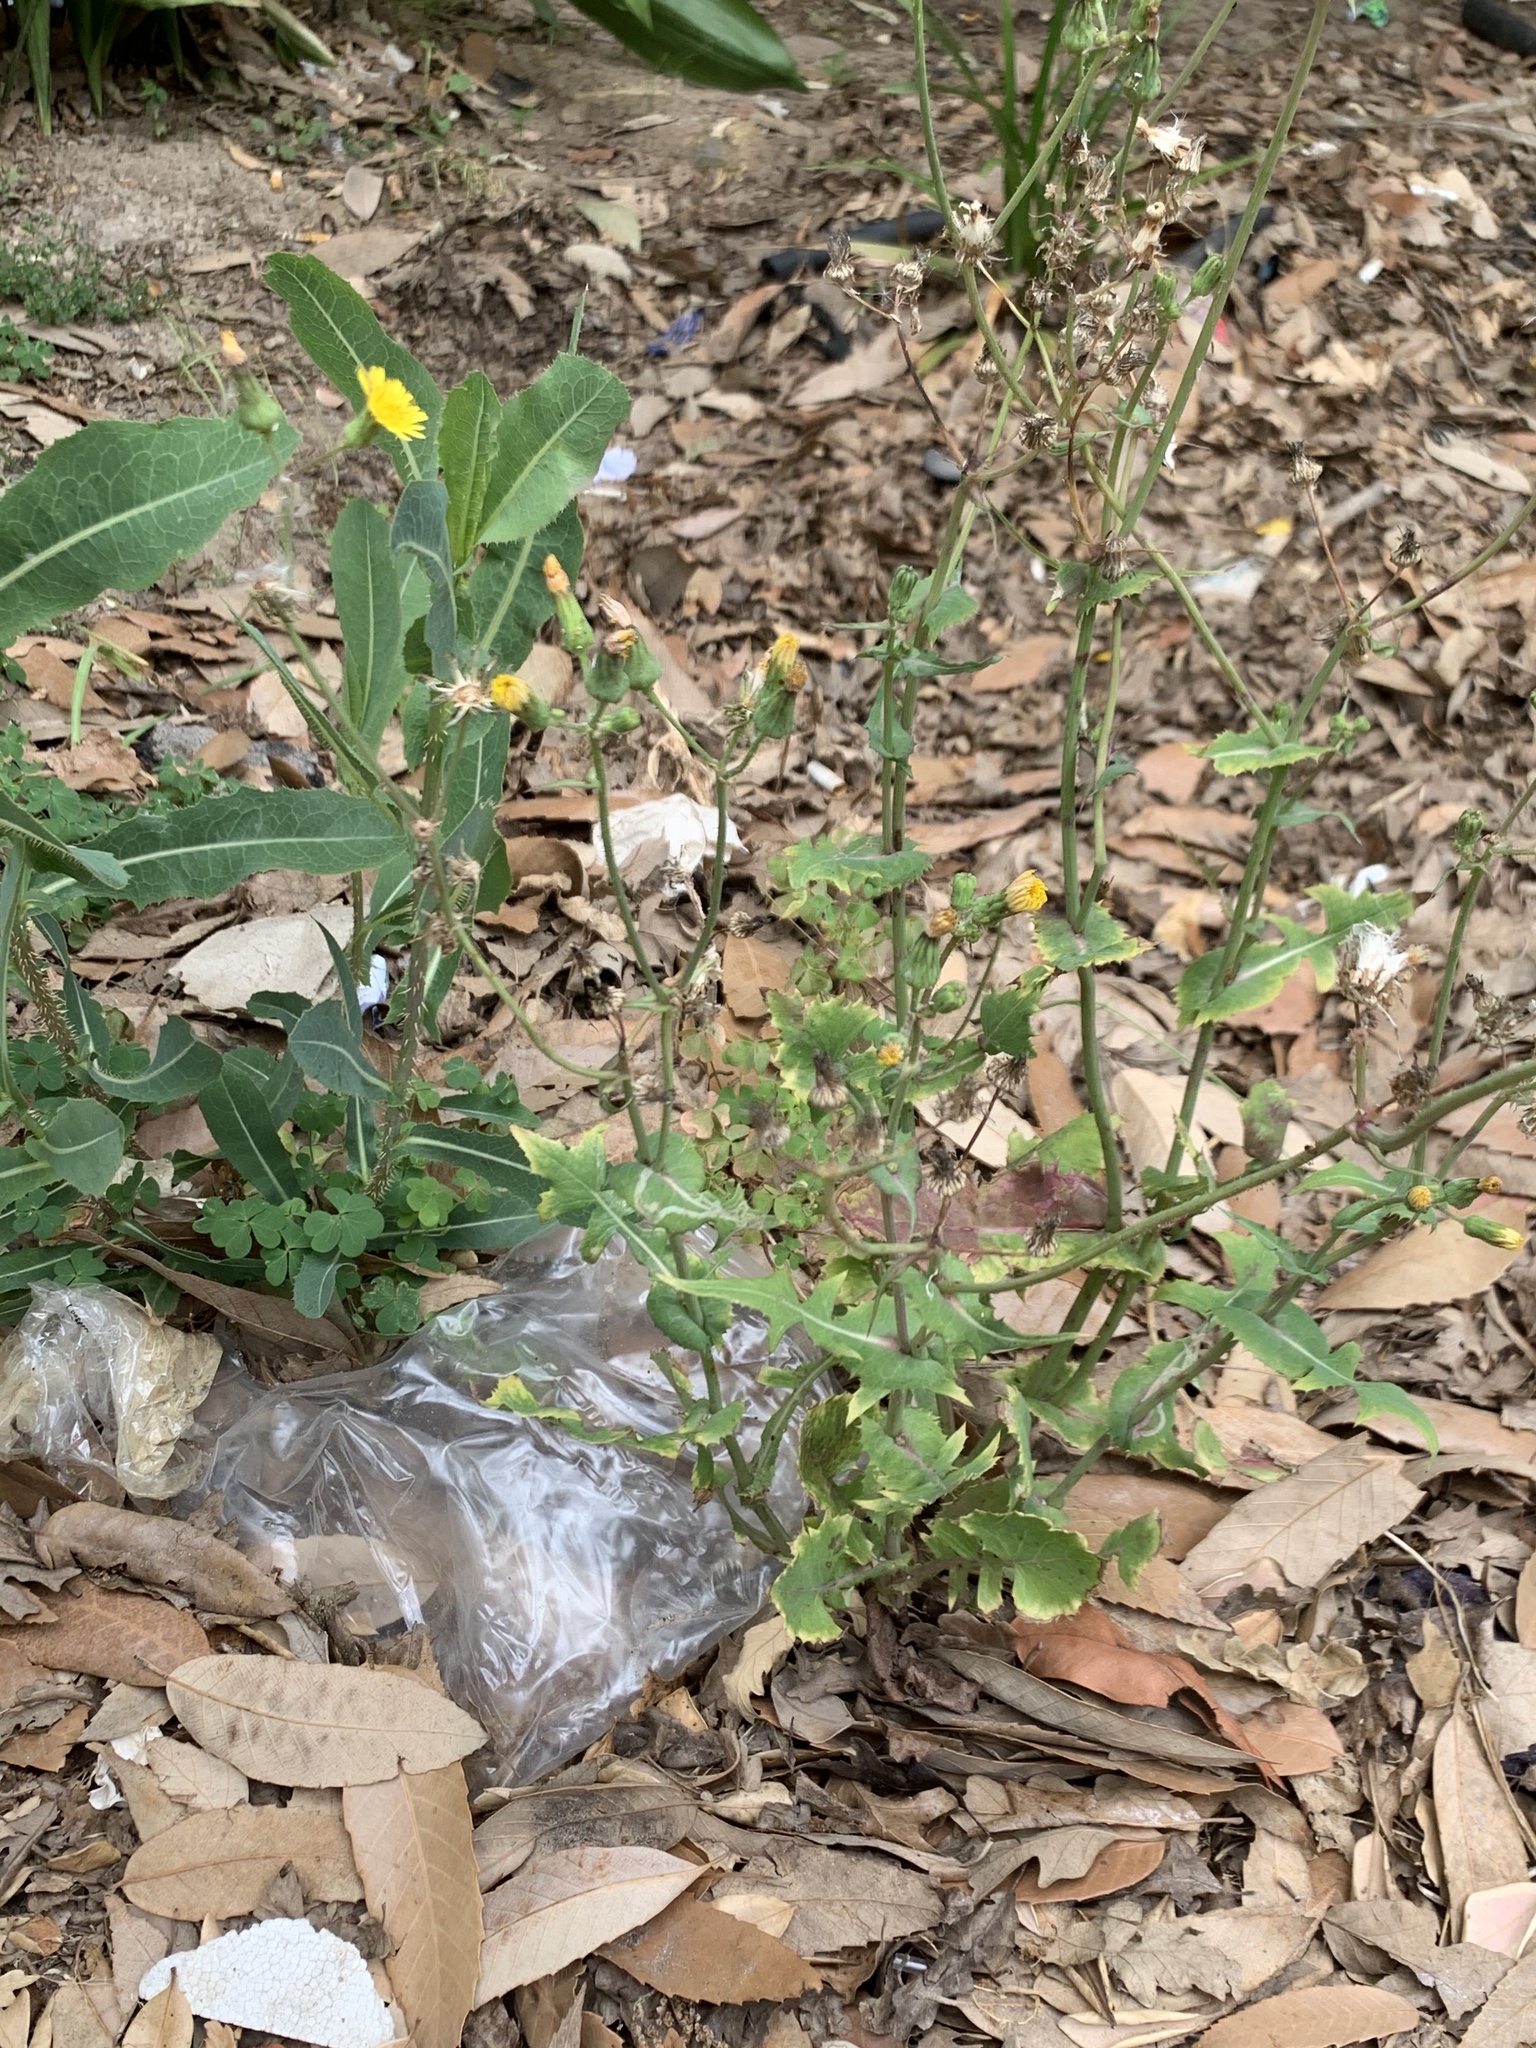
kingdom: Plantae
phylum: Tracheophyta
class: Magnoliopsida
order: Asterales
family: Asteraceae
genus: Sonchus
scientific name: Sonchus oleraceus
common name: Common sowthistle
